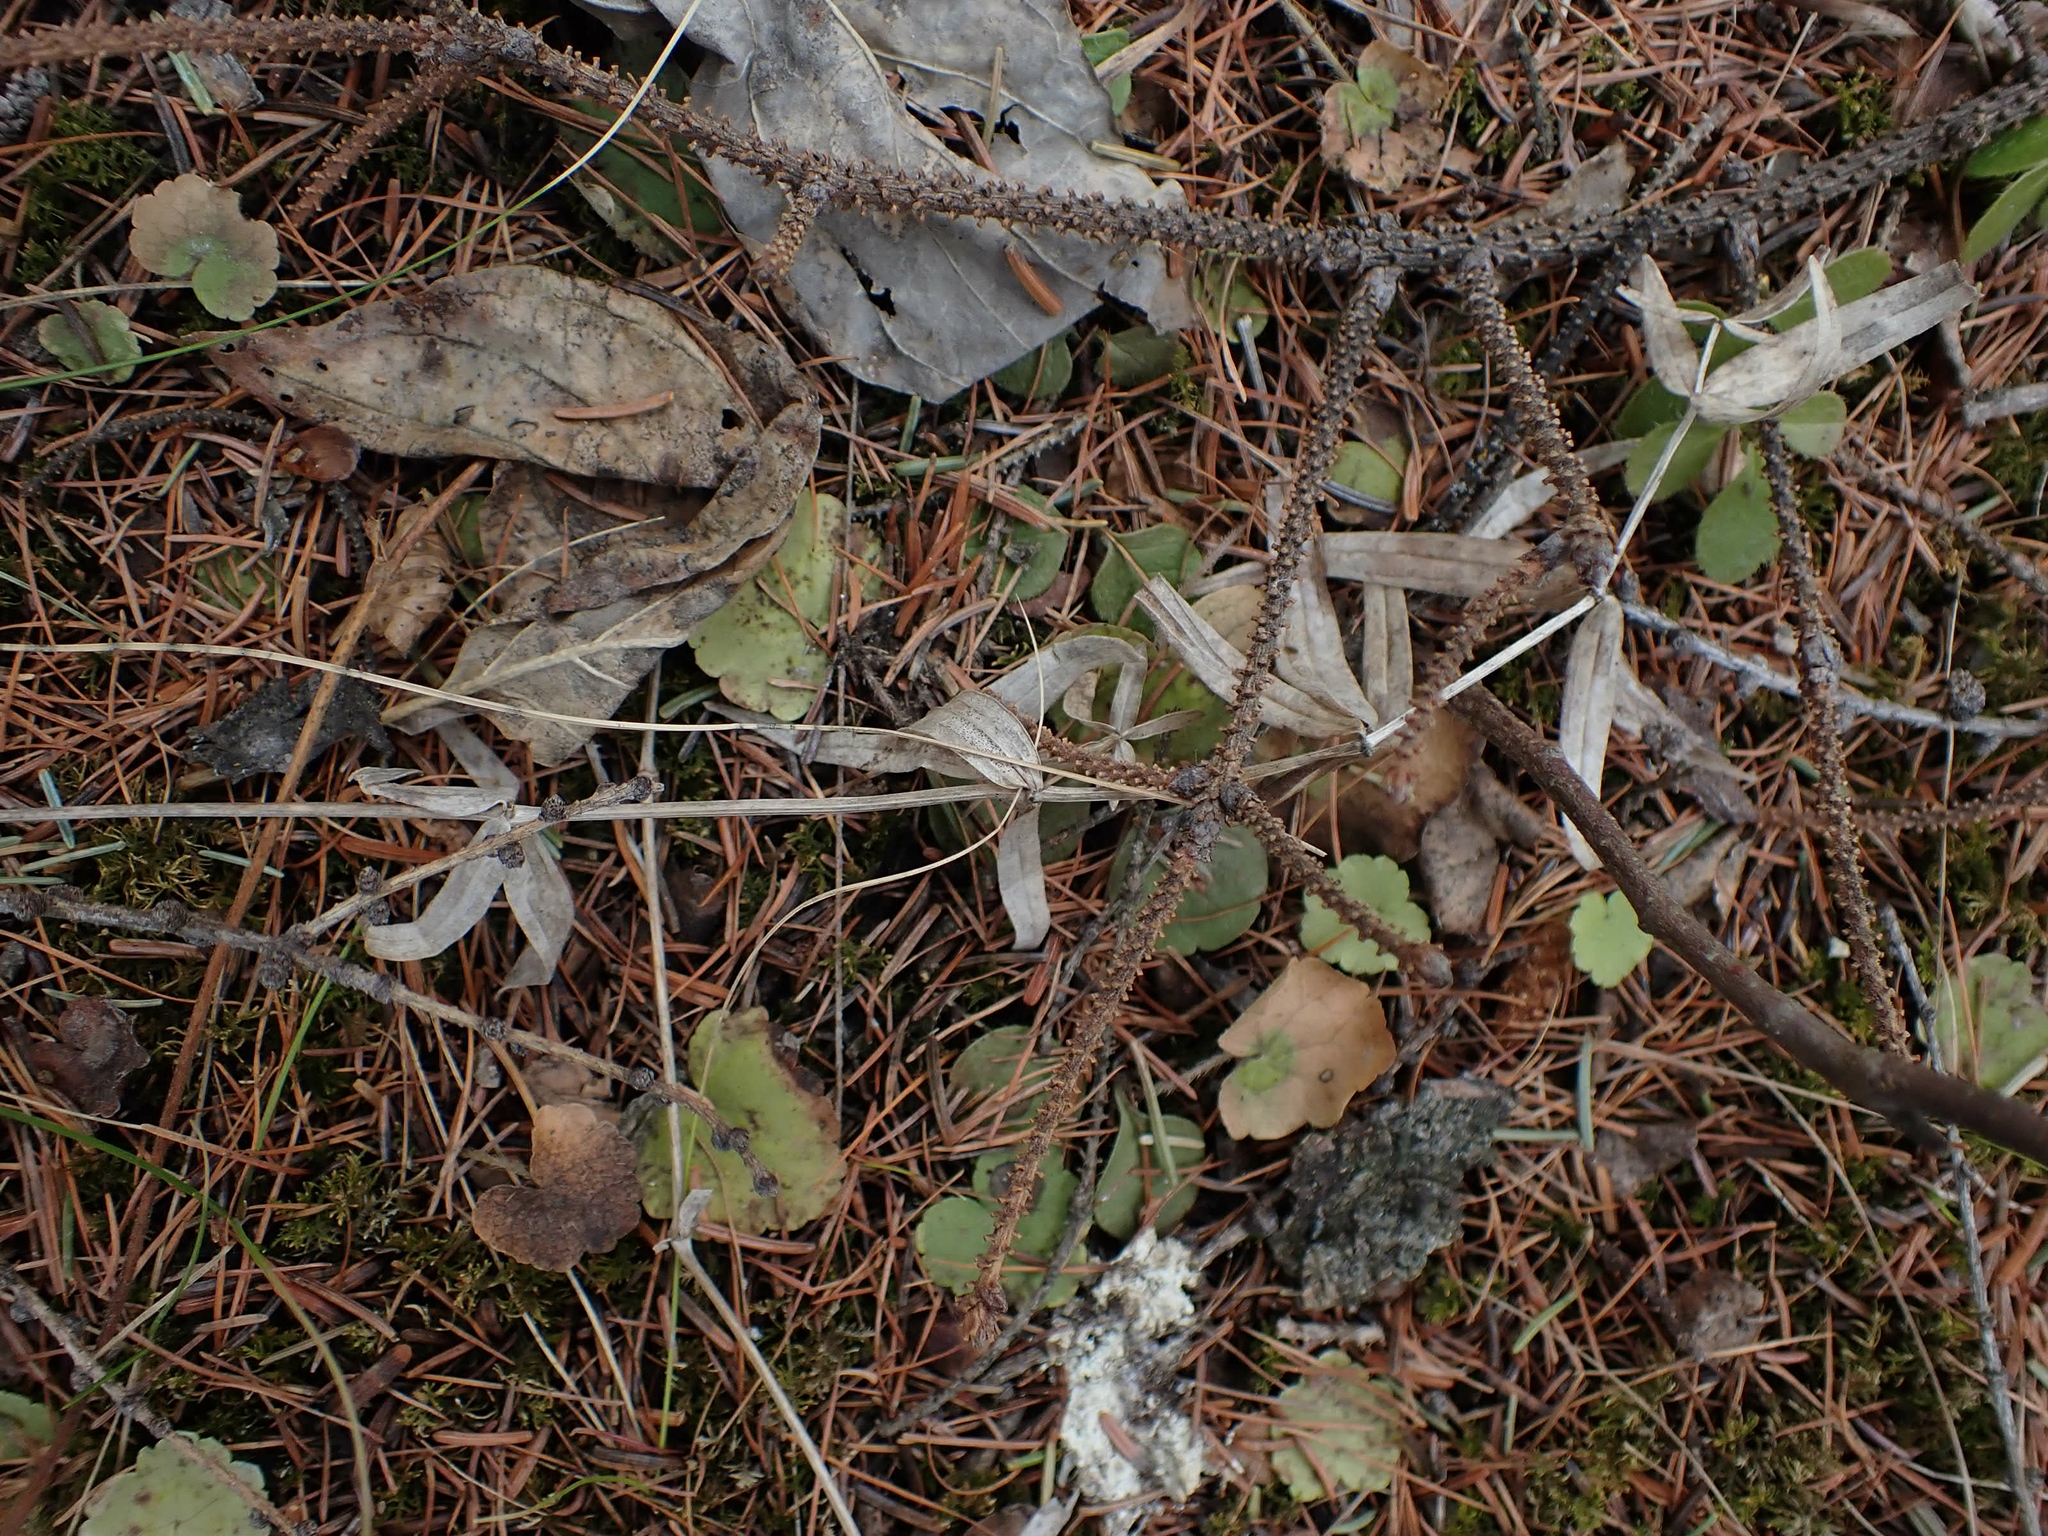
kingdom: Plantae
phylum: Tracheophyta
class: Magnoliopsida
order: Gentianales
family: Rubiaceae
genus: Galium
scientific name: Galium boreale
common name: Northern bedstraw
